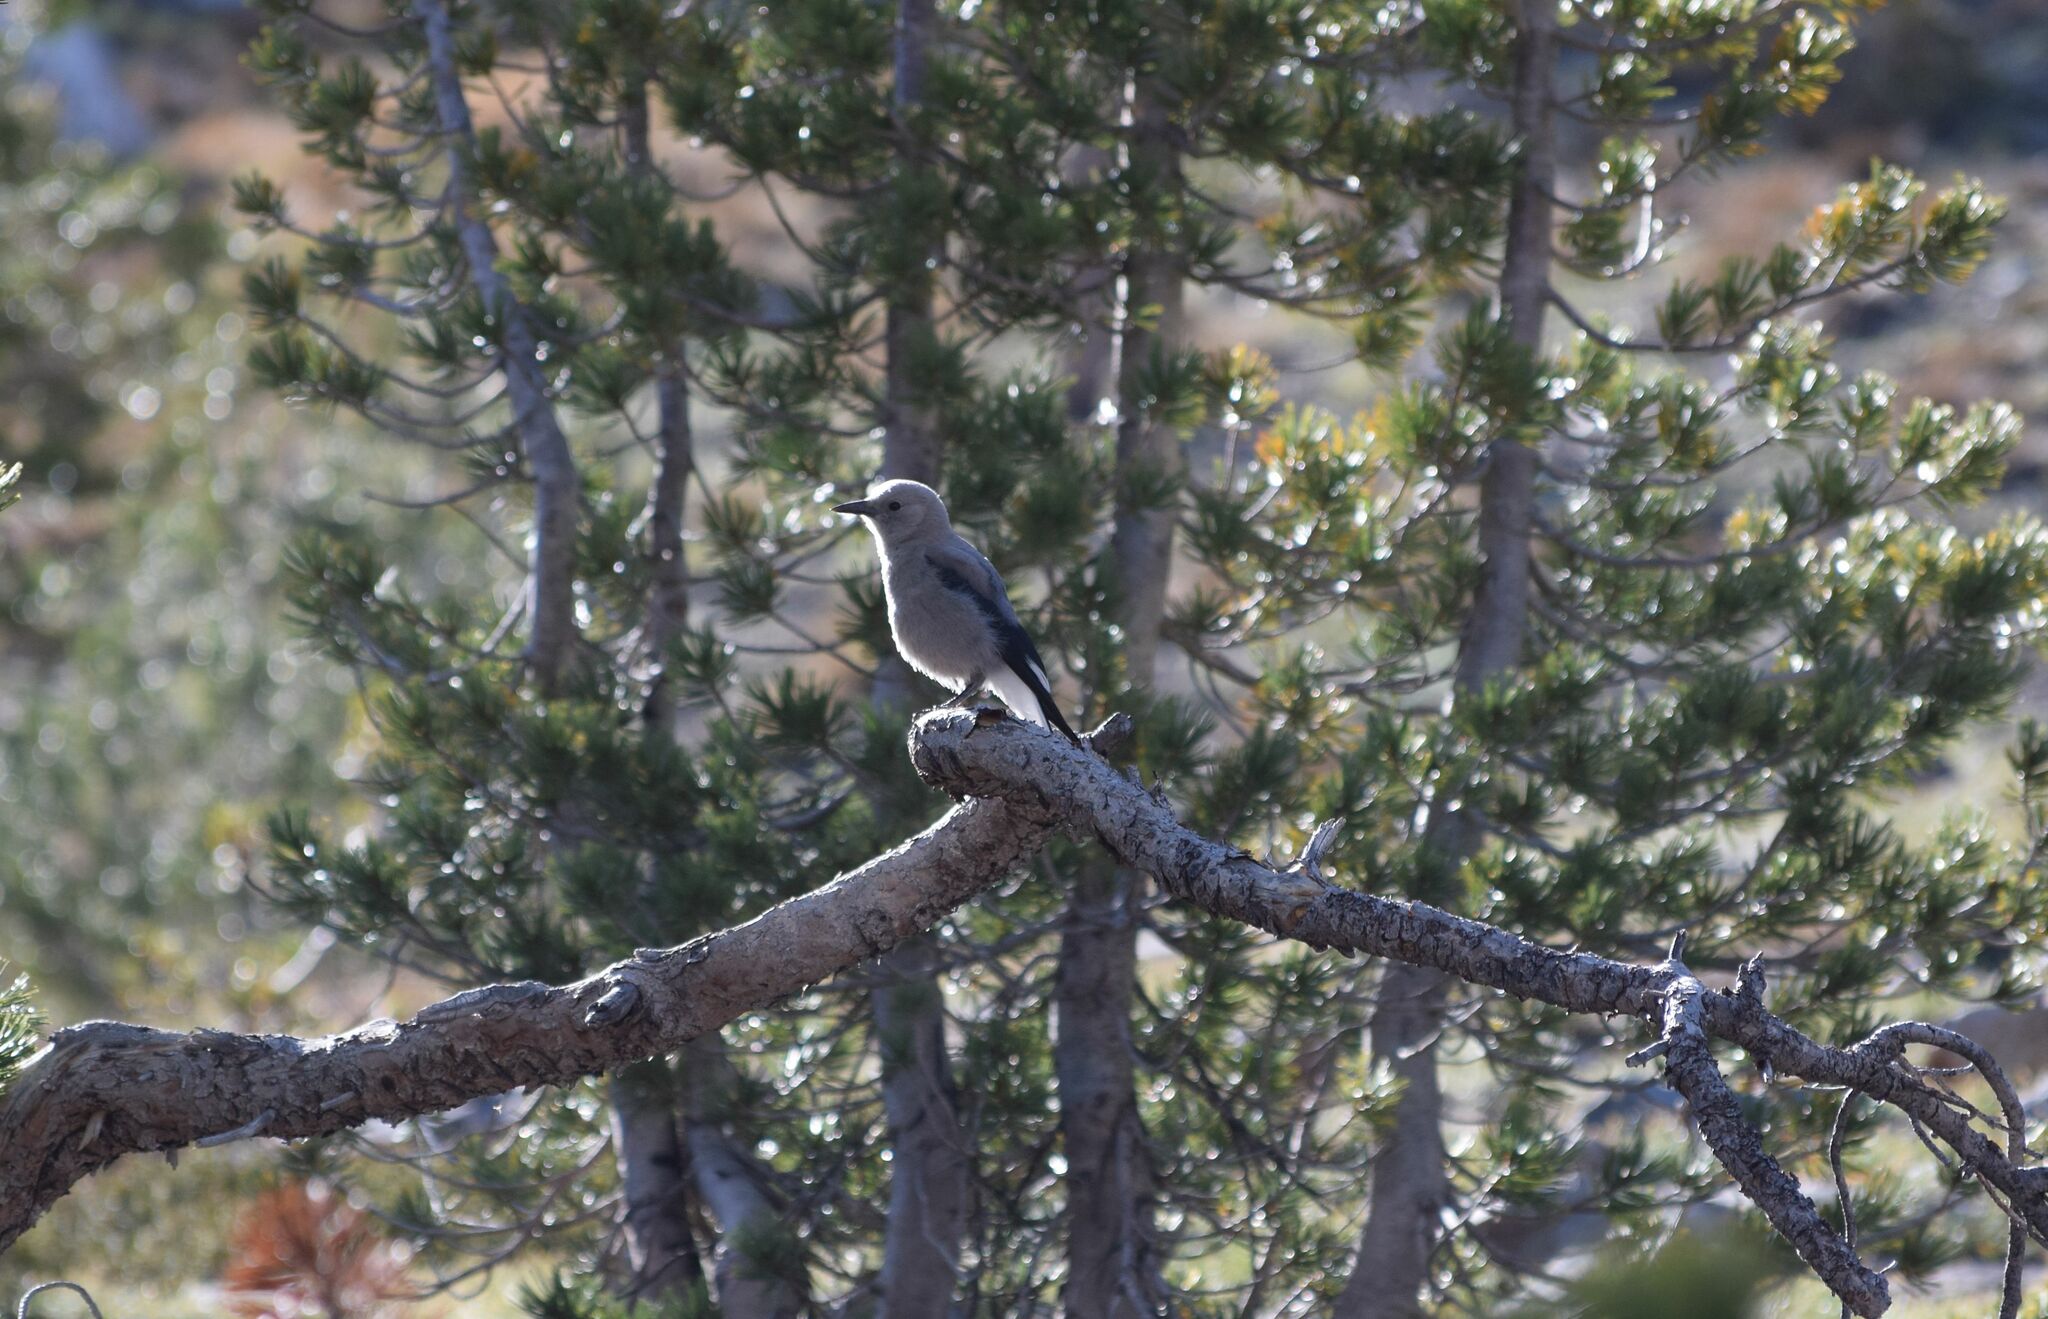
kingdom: Animalia
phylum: Chordata
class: Aves
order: Passeriformes
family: Corvidae
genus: Nucifraga
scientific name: Nucifraga columbiana
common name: Clark's nutcracker
